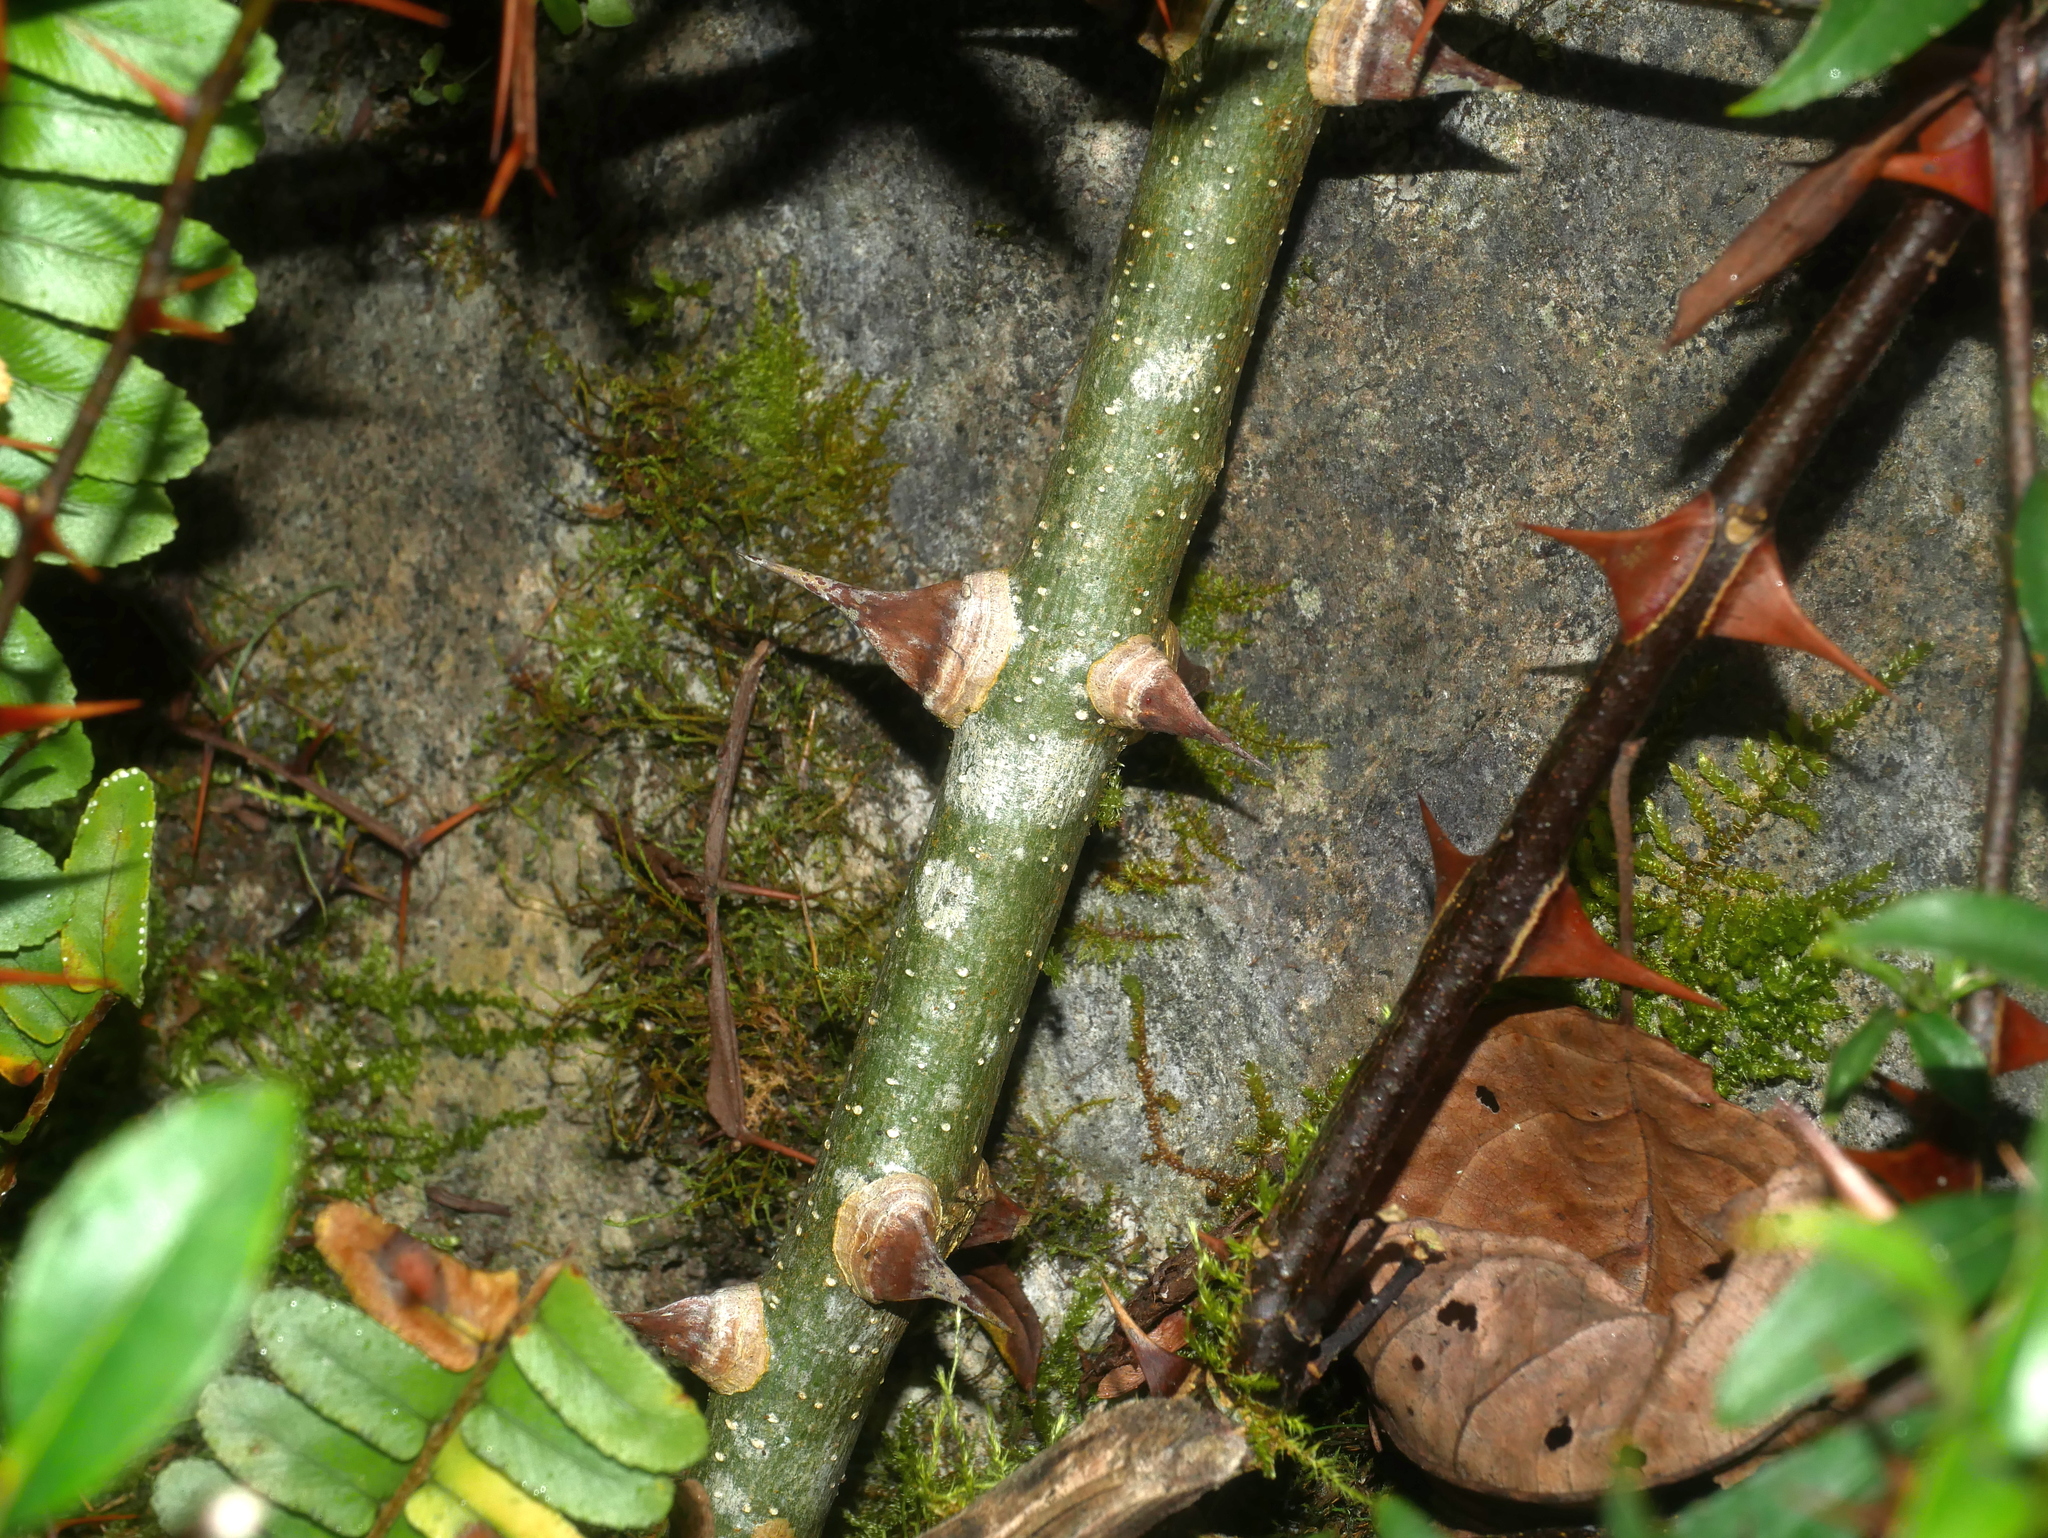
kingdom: Plantae
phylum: Tracheophyta
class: Magnoliopsida
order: Sapindales
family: Rutaceae
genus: Zanthoxylum
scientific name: Zanthoxylum acanthopodium
